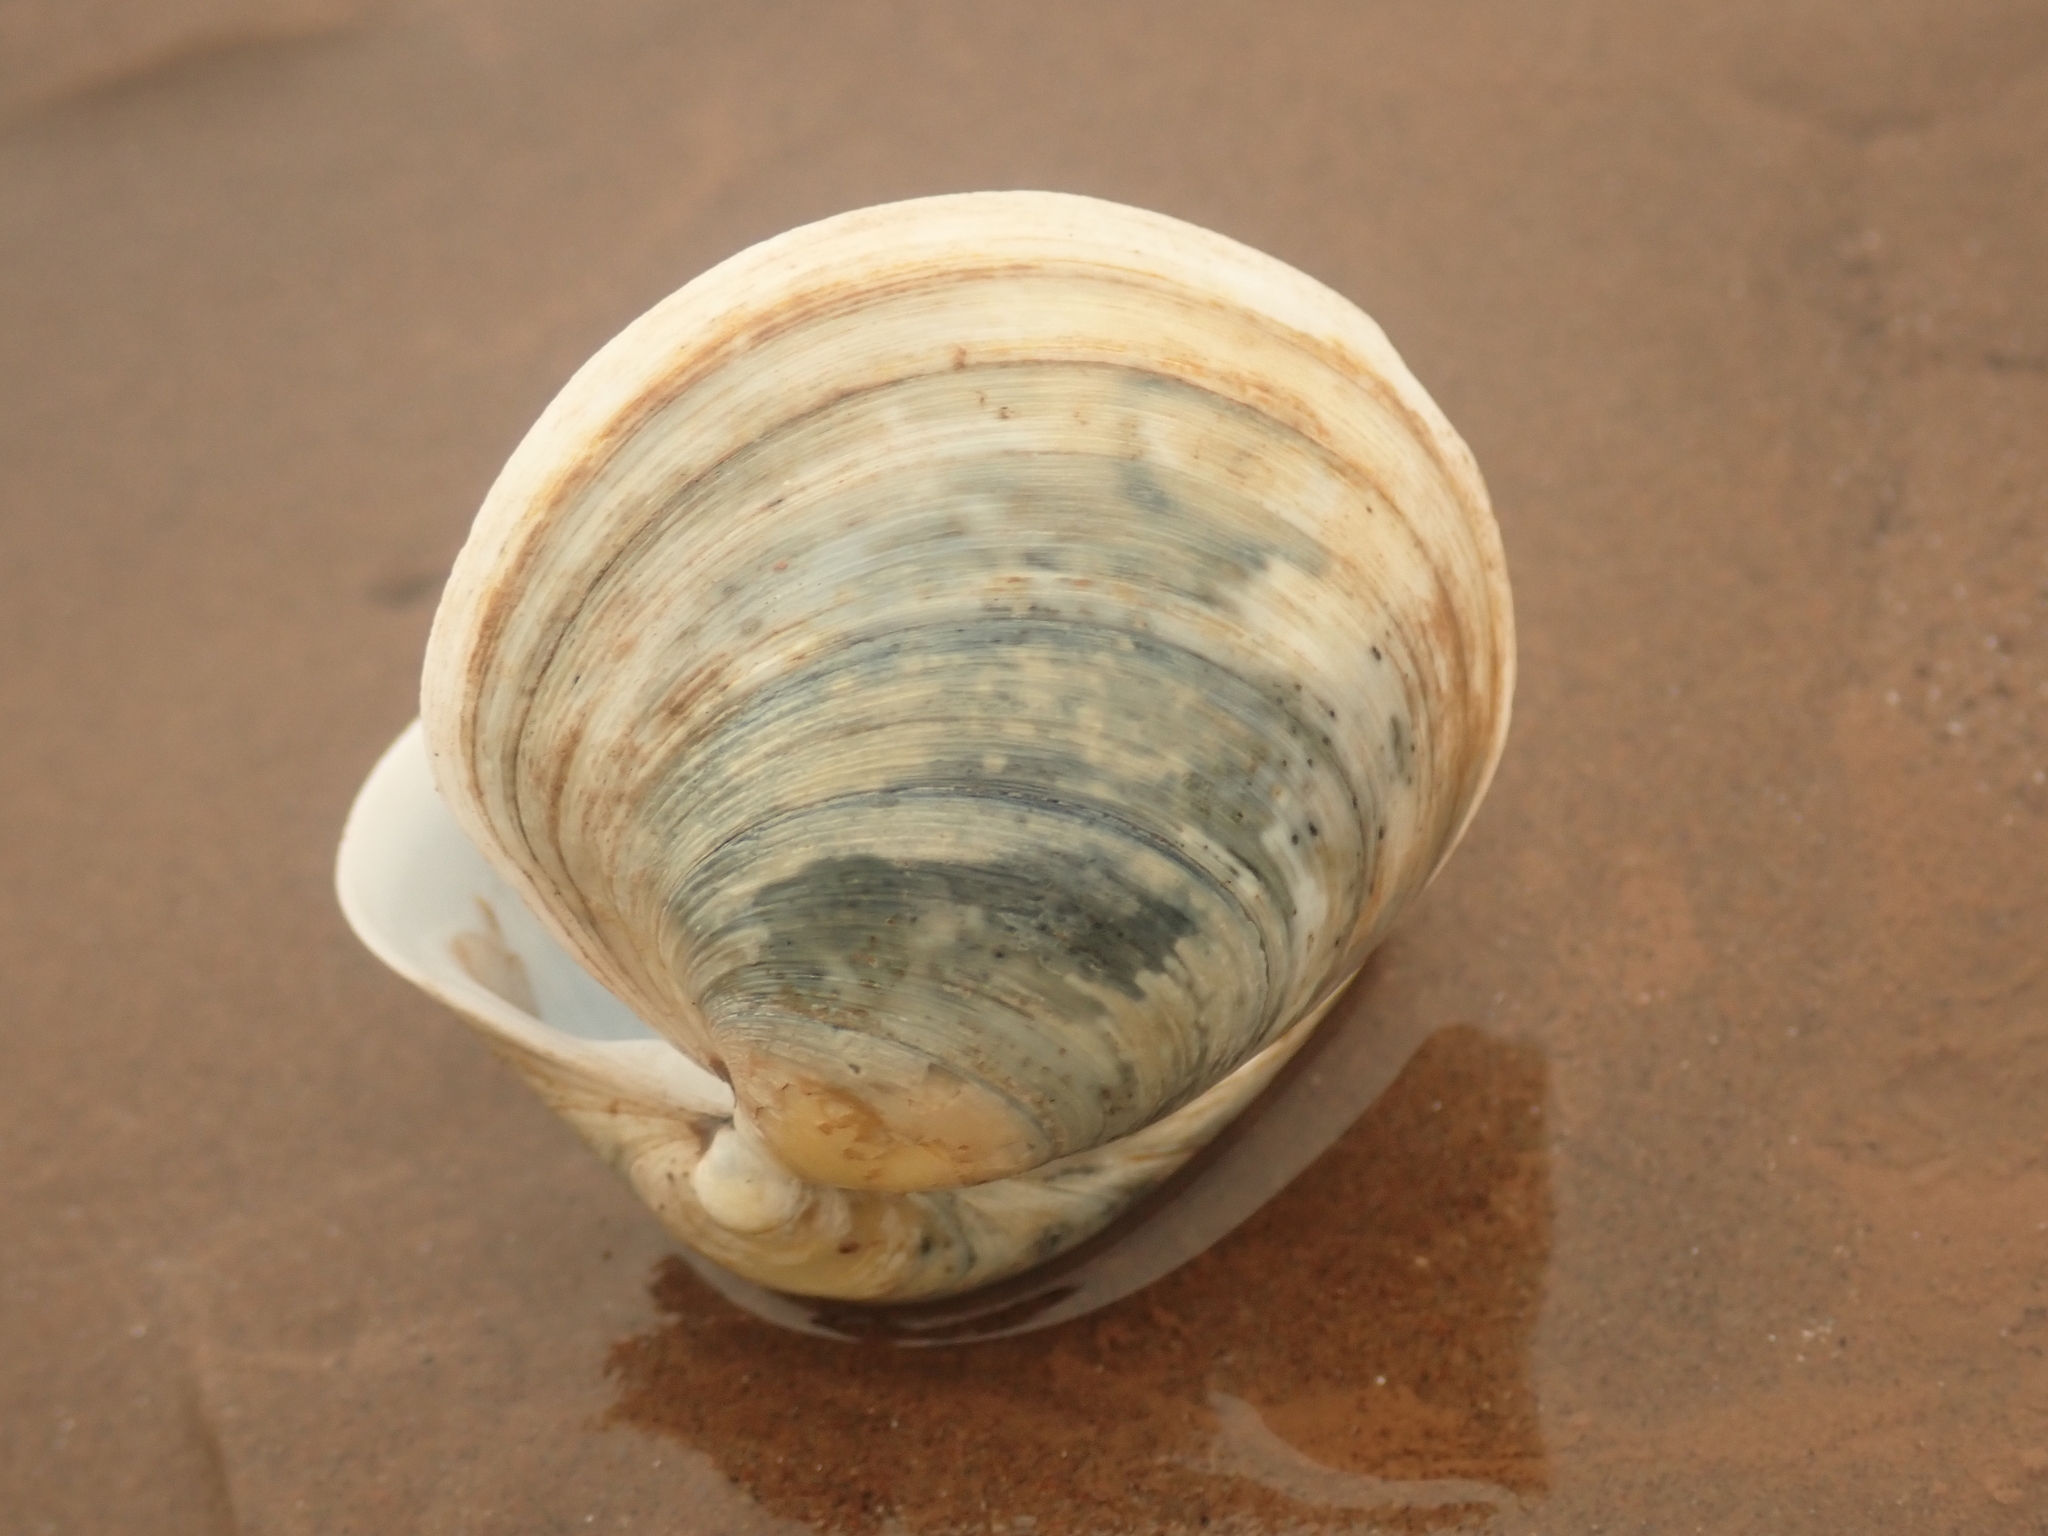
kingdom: Animalia
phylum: Mollusca
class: Bivalvia
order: Venerida
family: Veneridae
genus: Agriopoma
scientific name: Agriopoma morrhuanum
